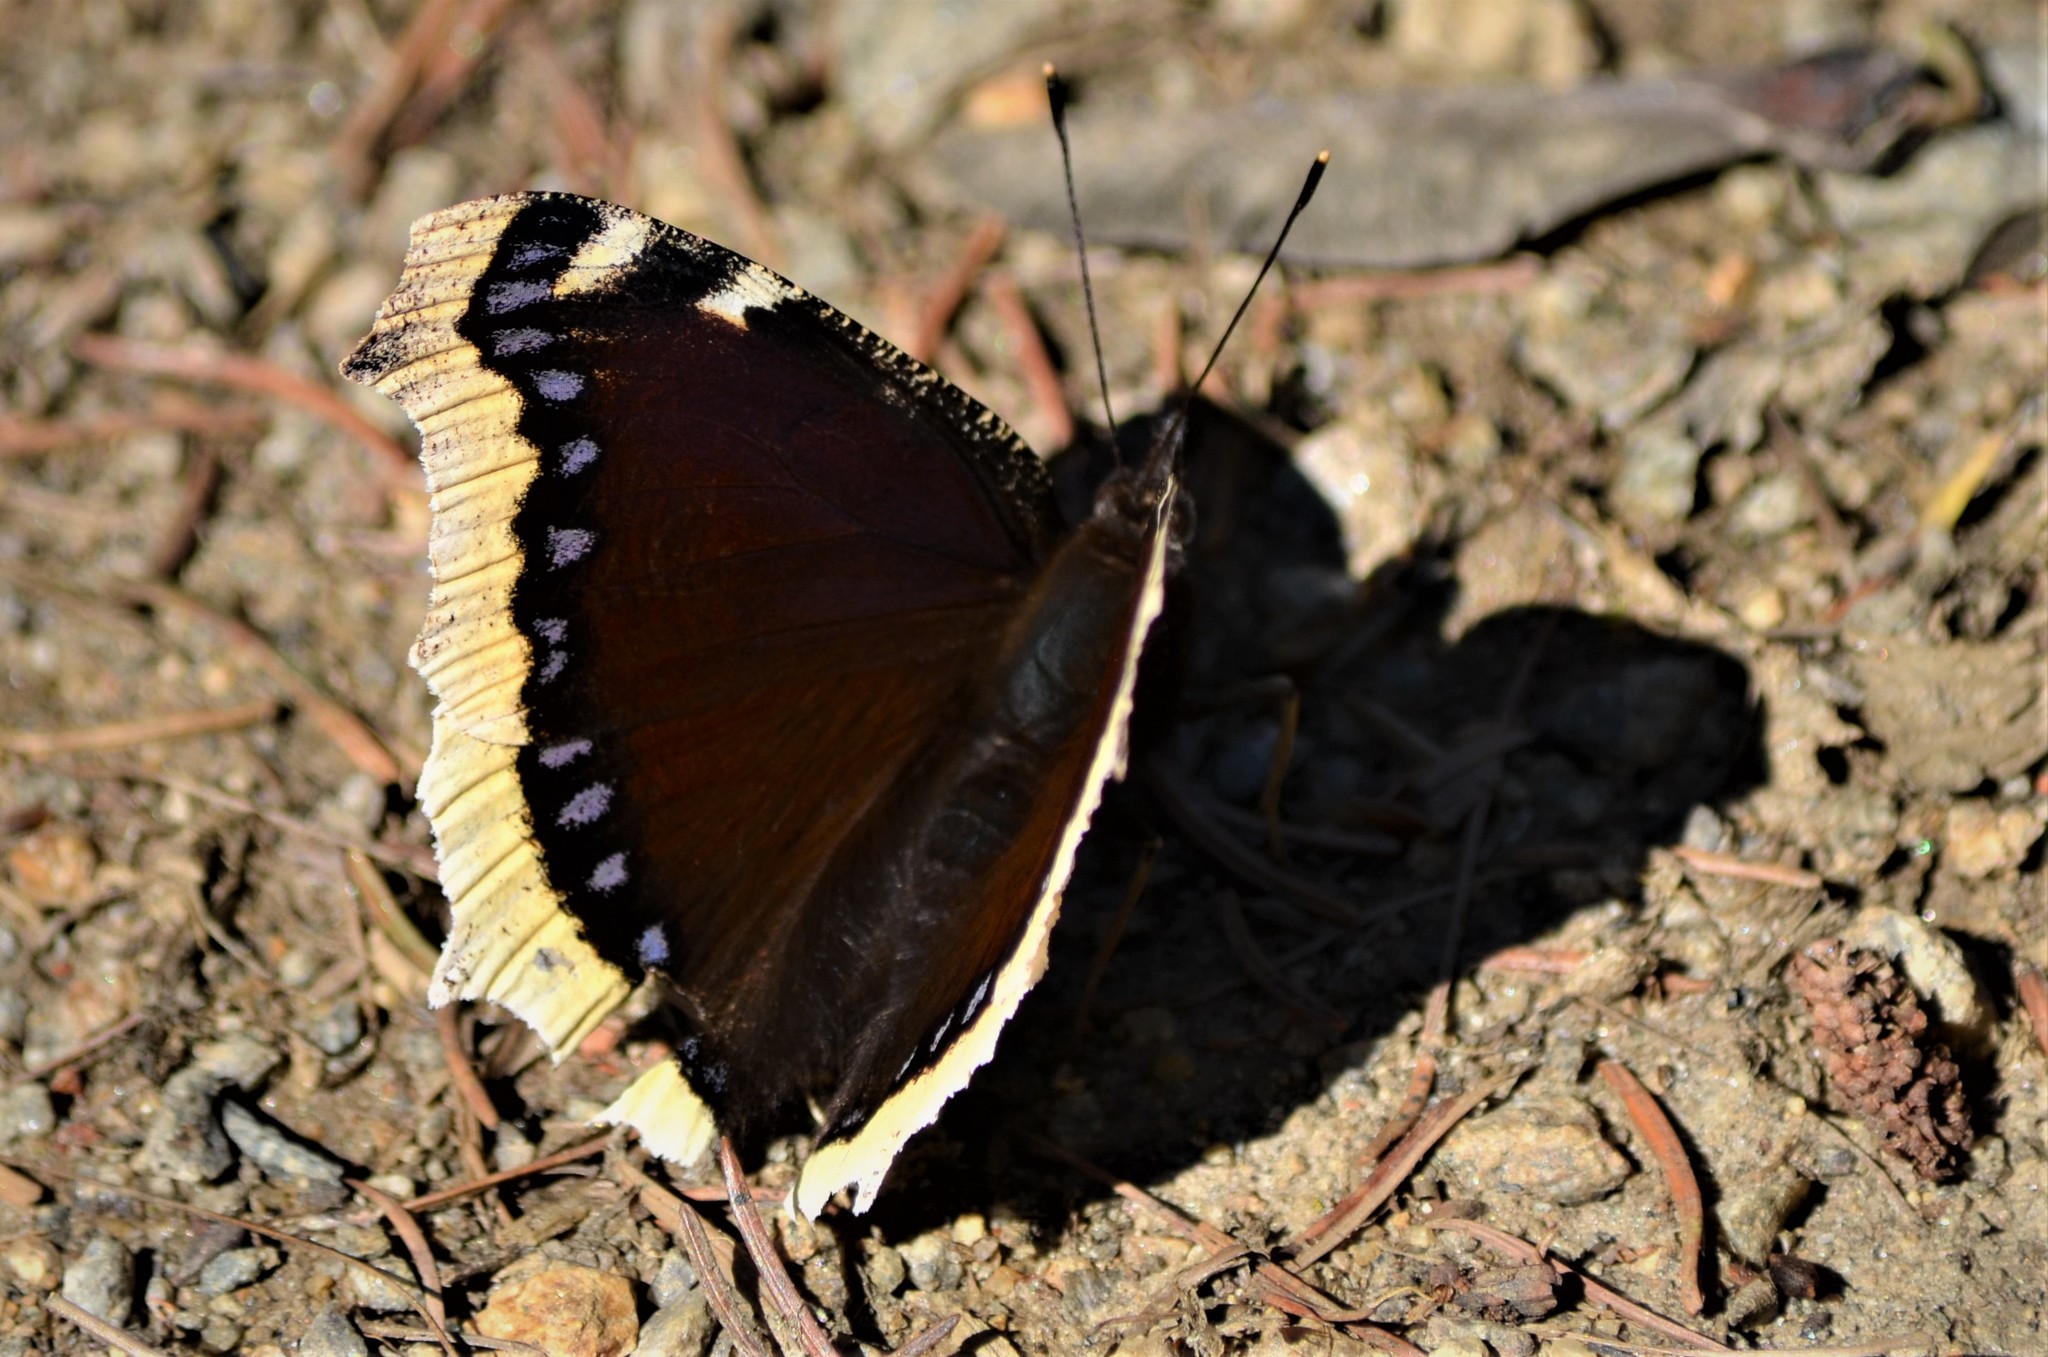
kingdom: Animalia
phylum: Arthropoda
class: Insecta
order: Lepidoptera
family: Nymphalidae
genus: Nymphalis
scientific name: Nymphalis antiopa
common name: Camberwell beauty
